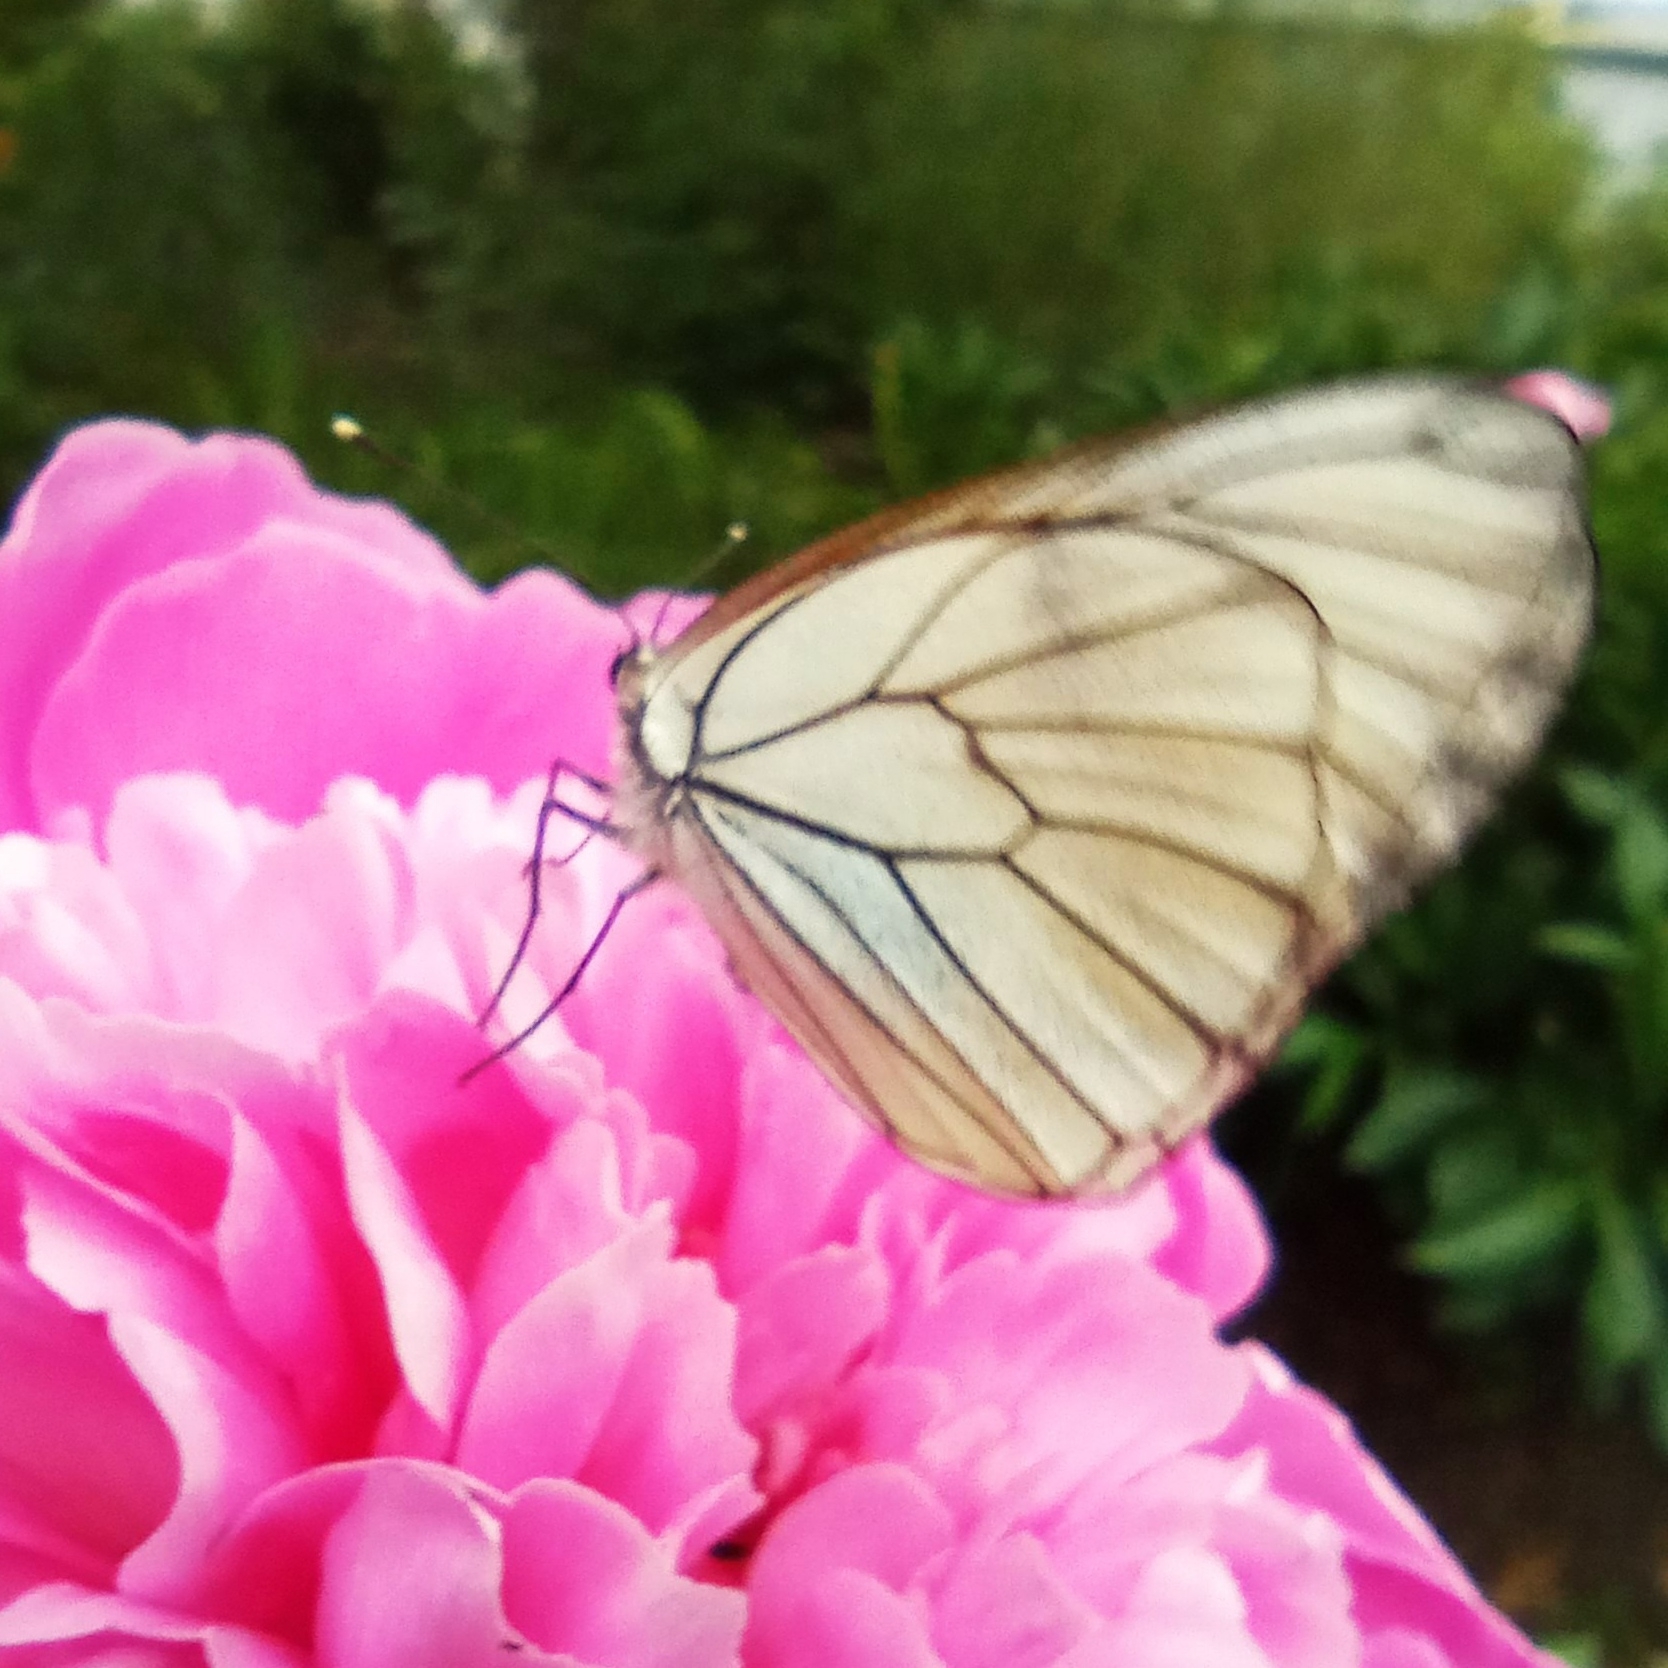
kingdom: Animalia
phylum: Arthropoda
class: Insecta
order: Lepidoptera
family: Pieridae
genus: Aporia
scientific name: Aporia crataegi
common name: Black-veined white
